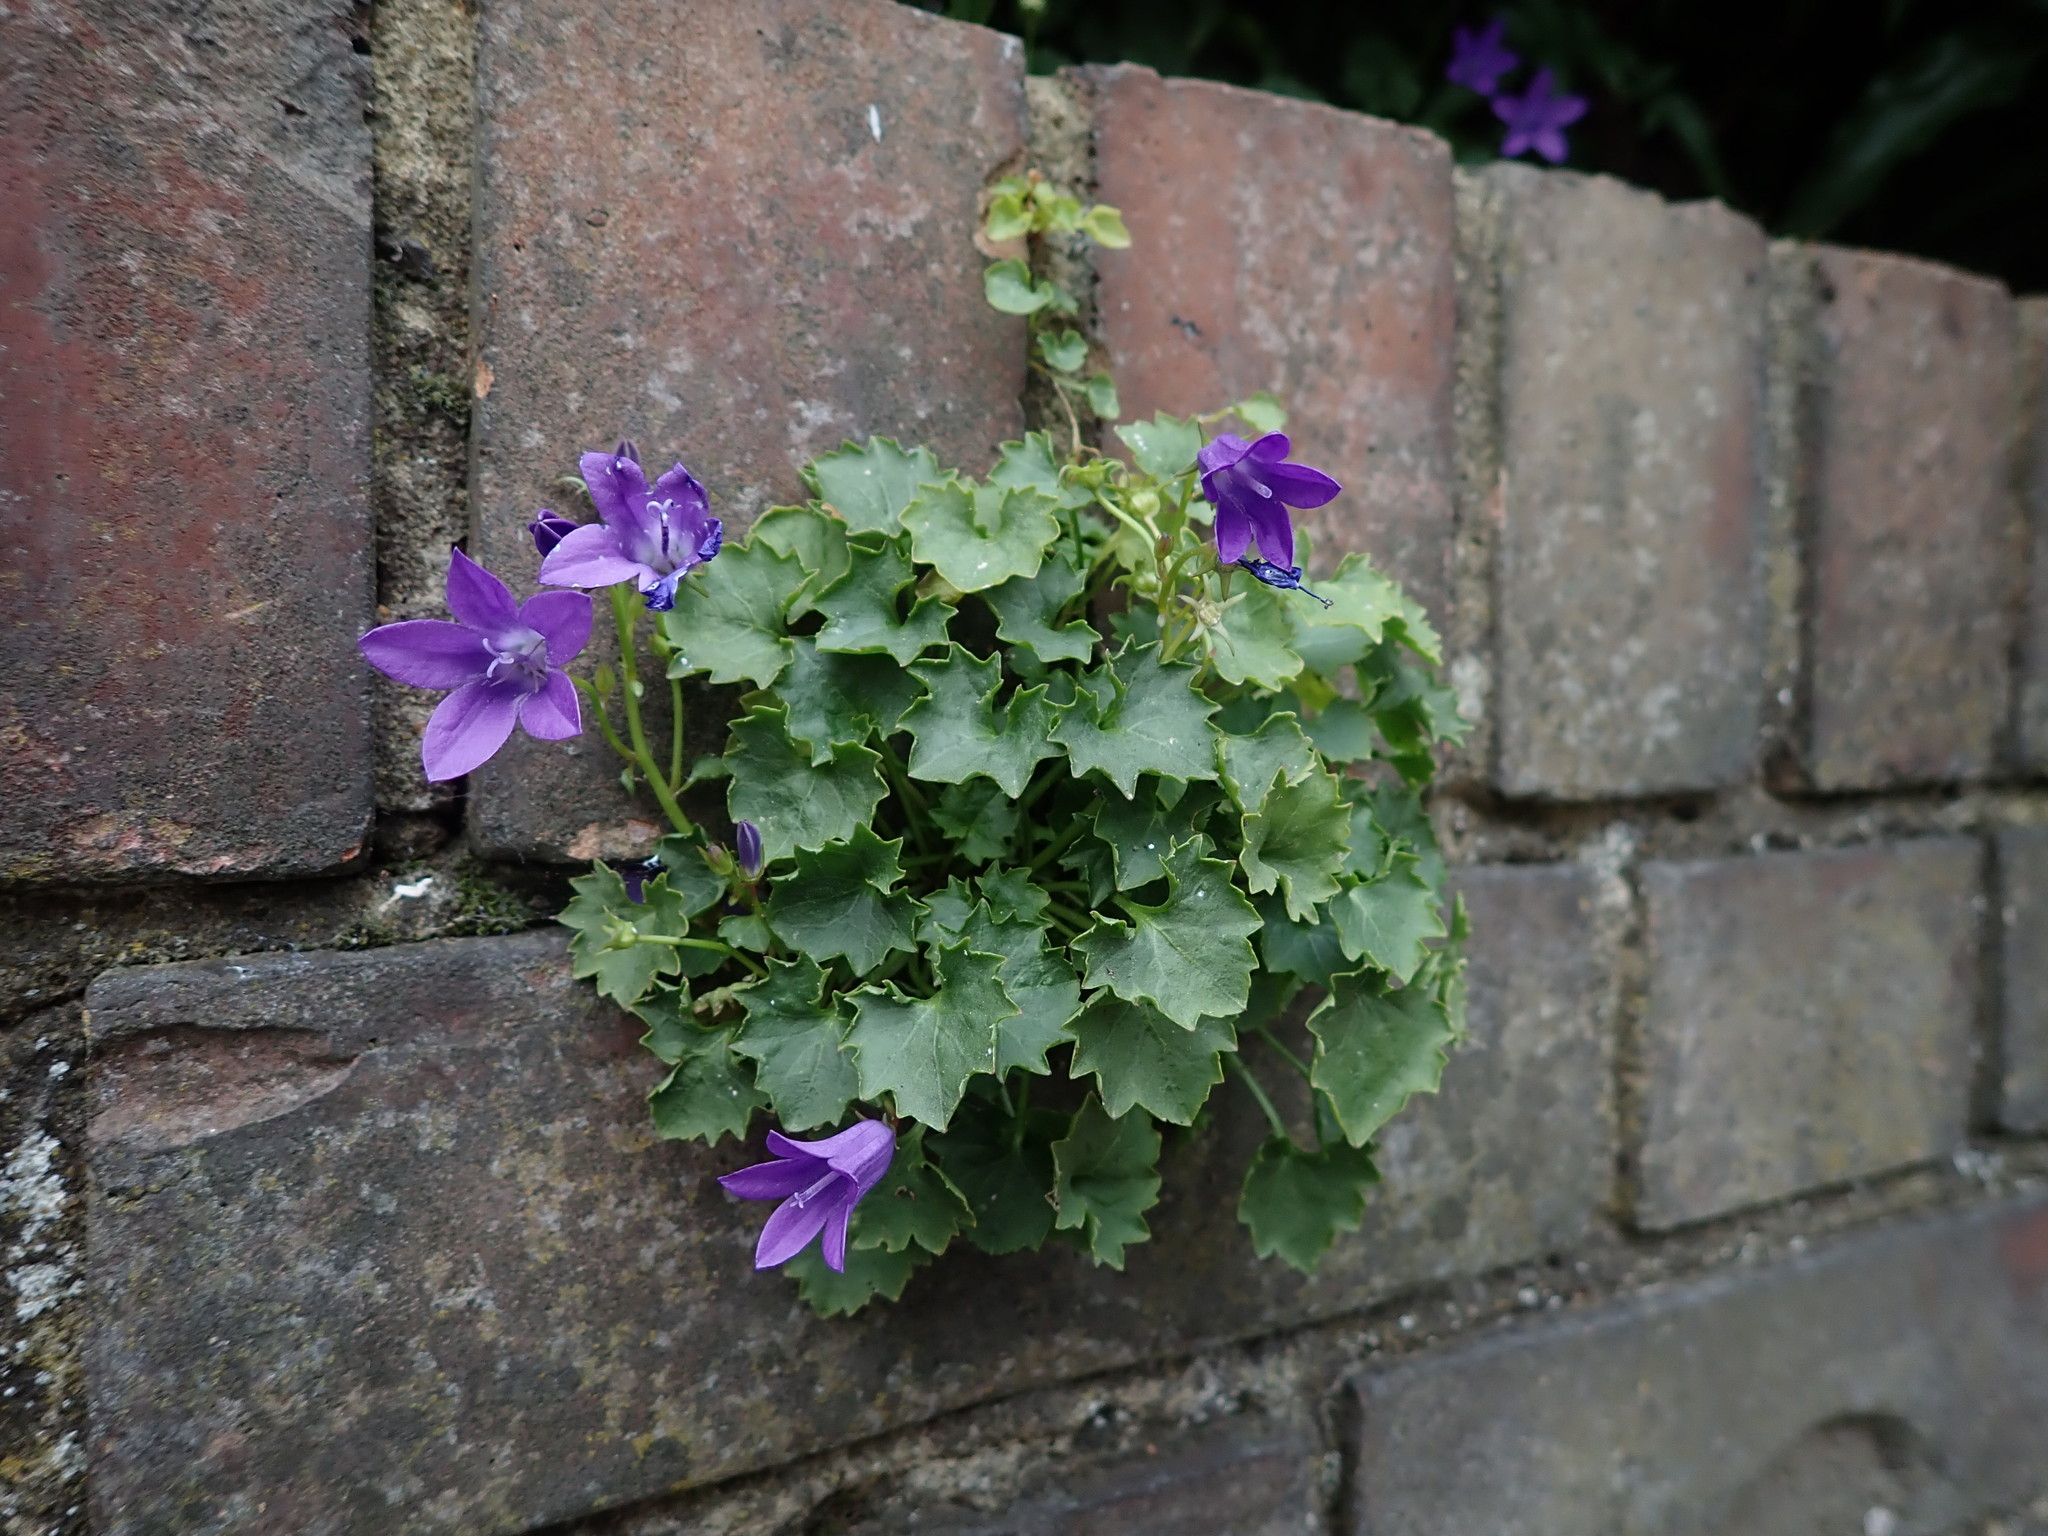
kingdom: Plantae
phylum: Tracheophyta
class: Magnoliopsida
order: Asterales
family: Campanulaceae
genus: Campanula
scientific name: Campanula portenschlagiana
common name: Adria bellflower
